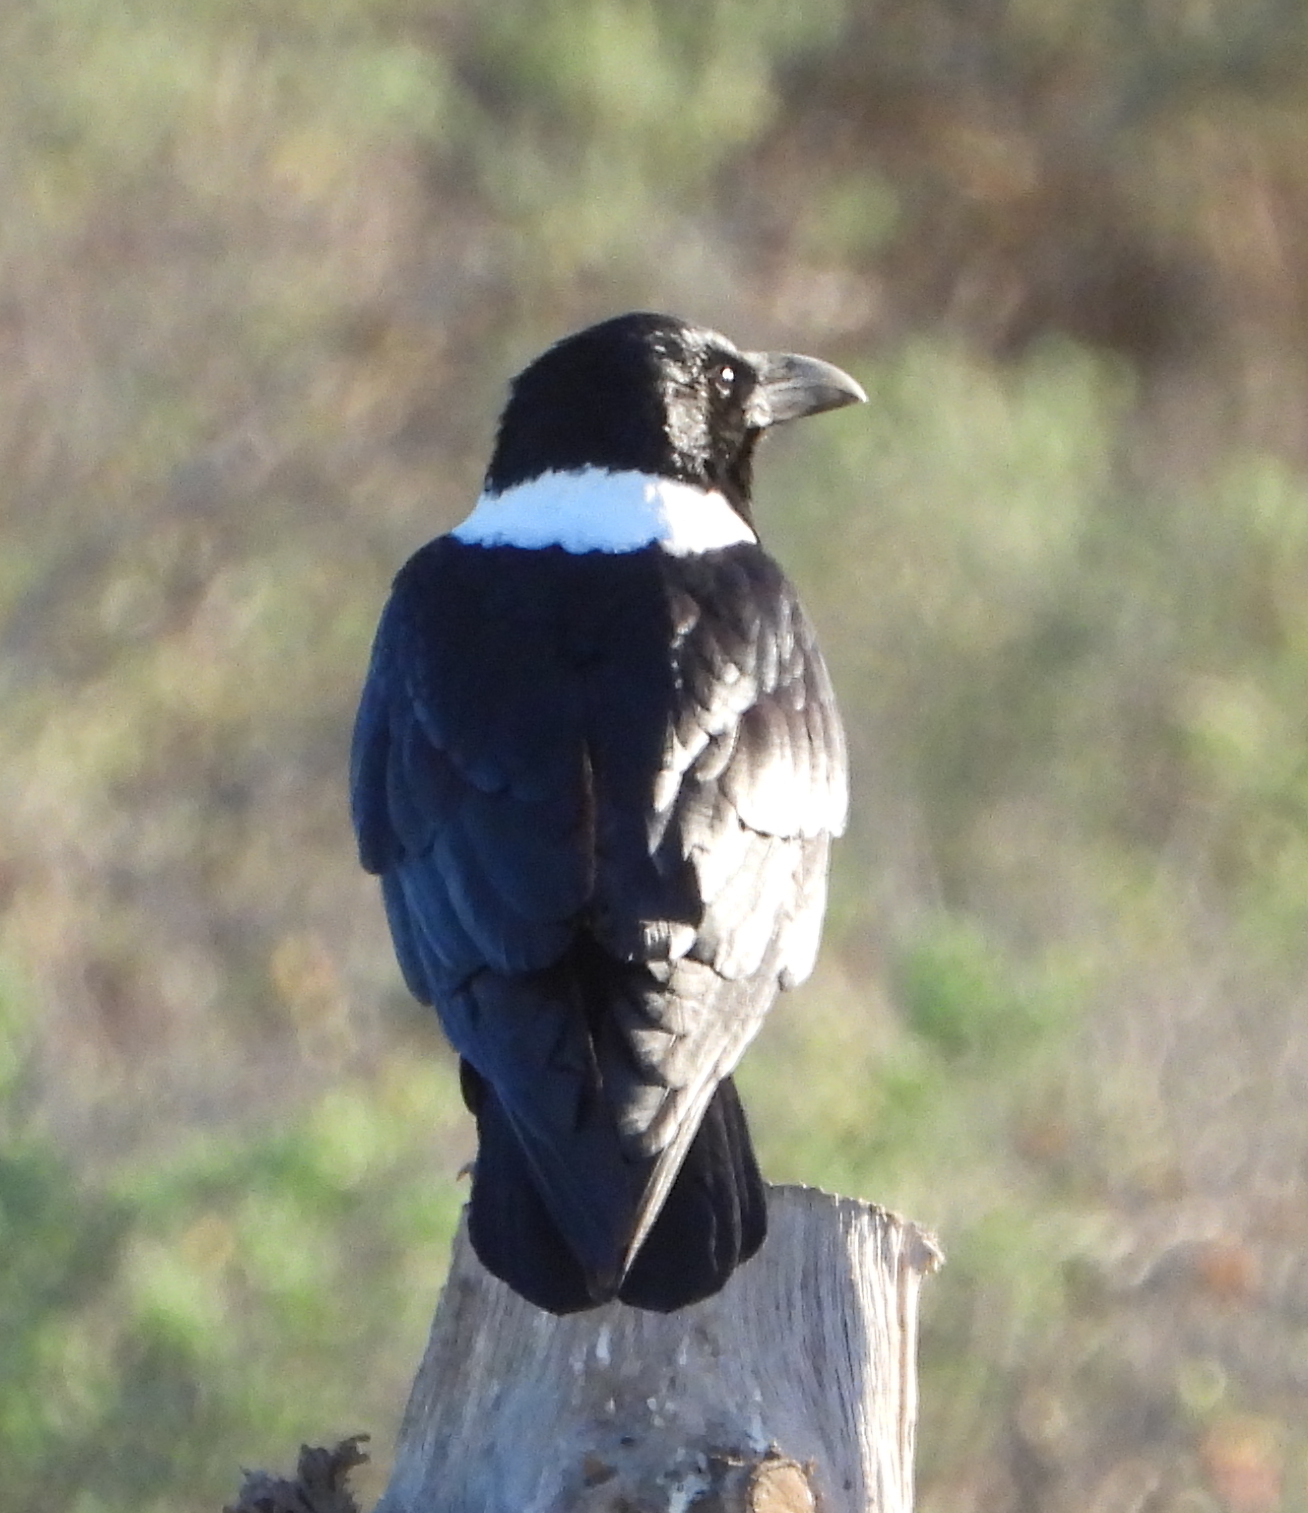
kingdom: Animalia
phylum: Chordata
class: Aves
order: Passeriformes
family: Corvidae
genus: Corvus
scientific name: Corvus albus
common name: Pied crow
